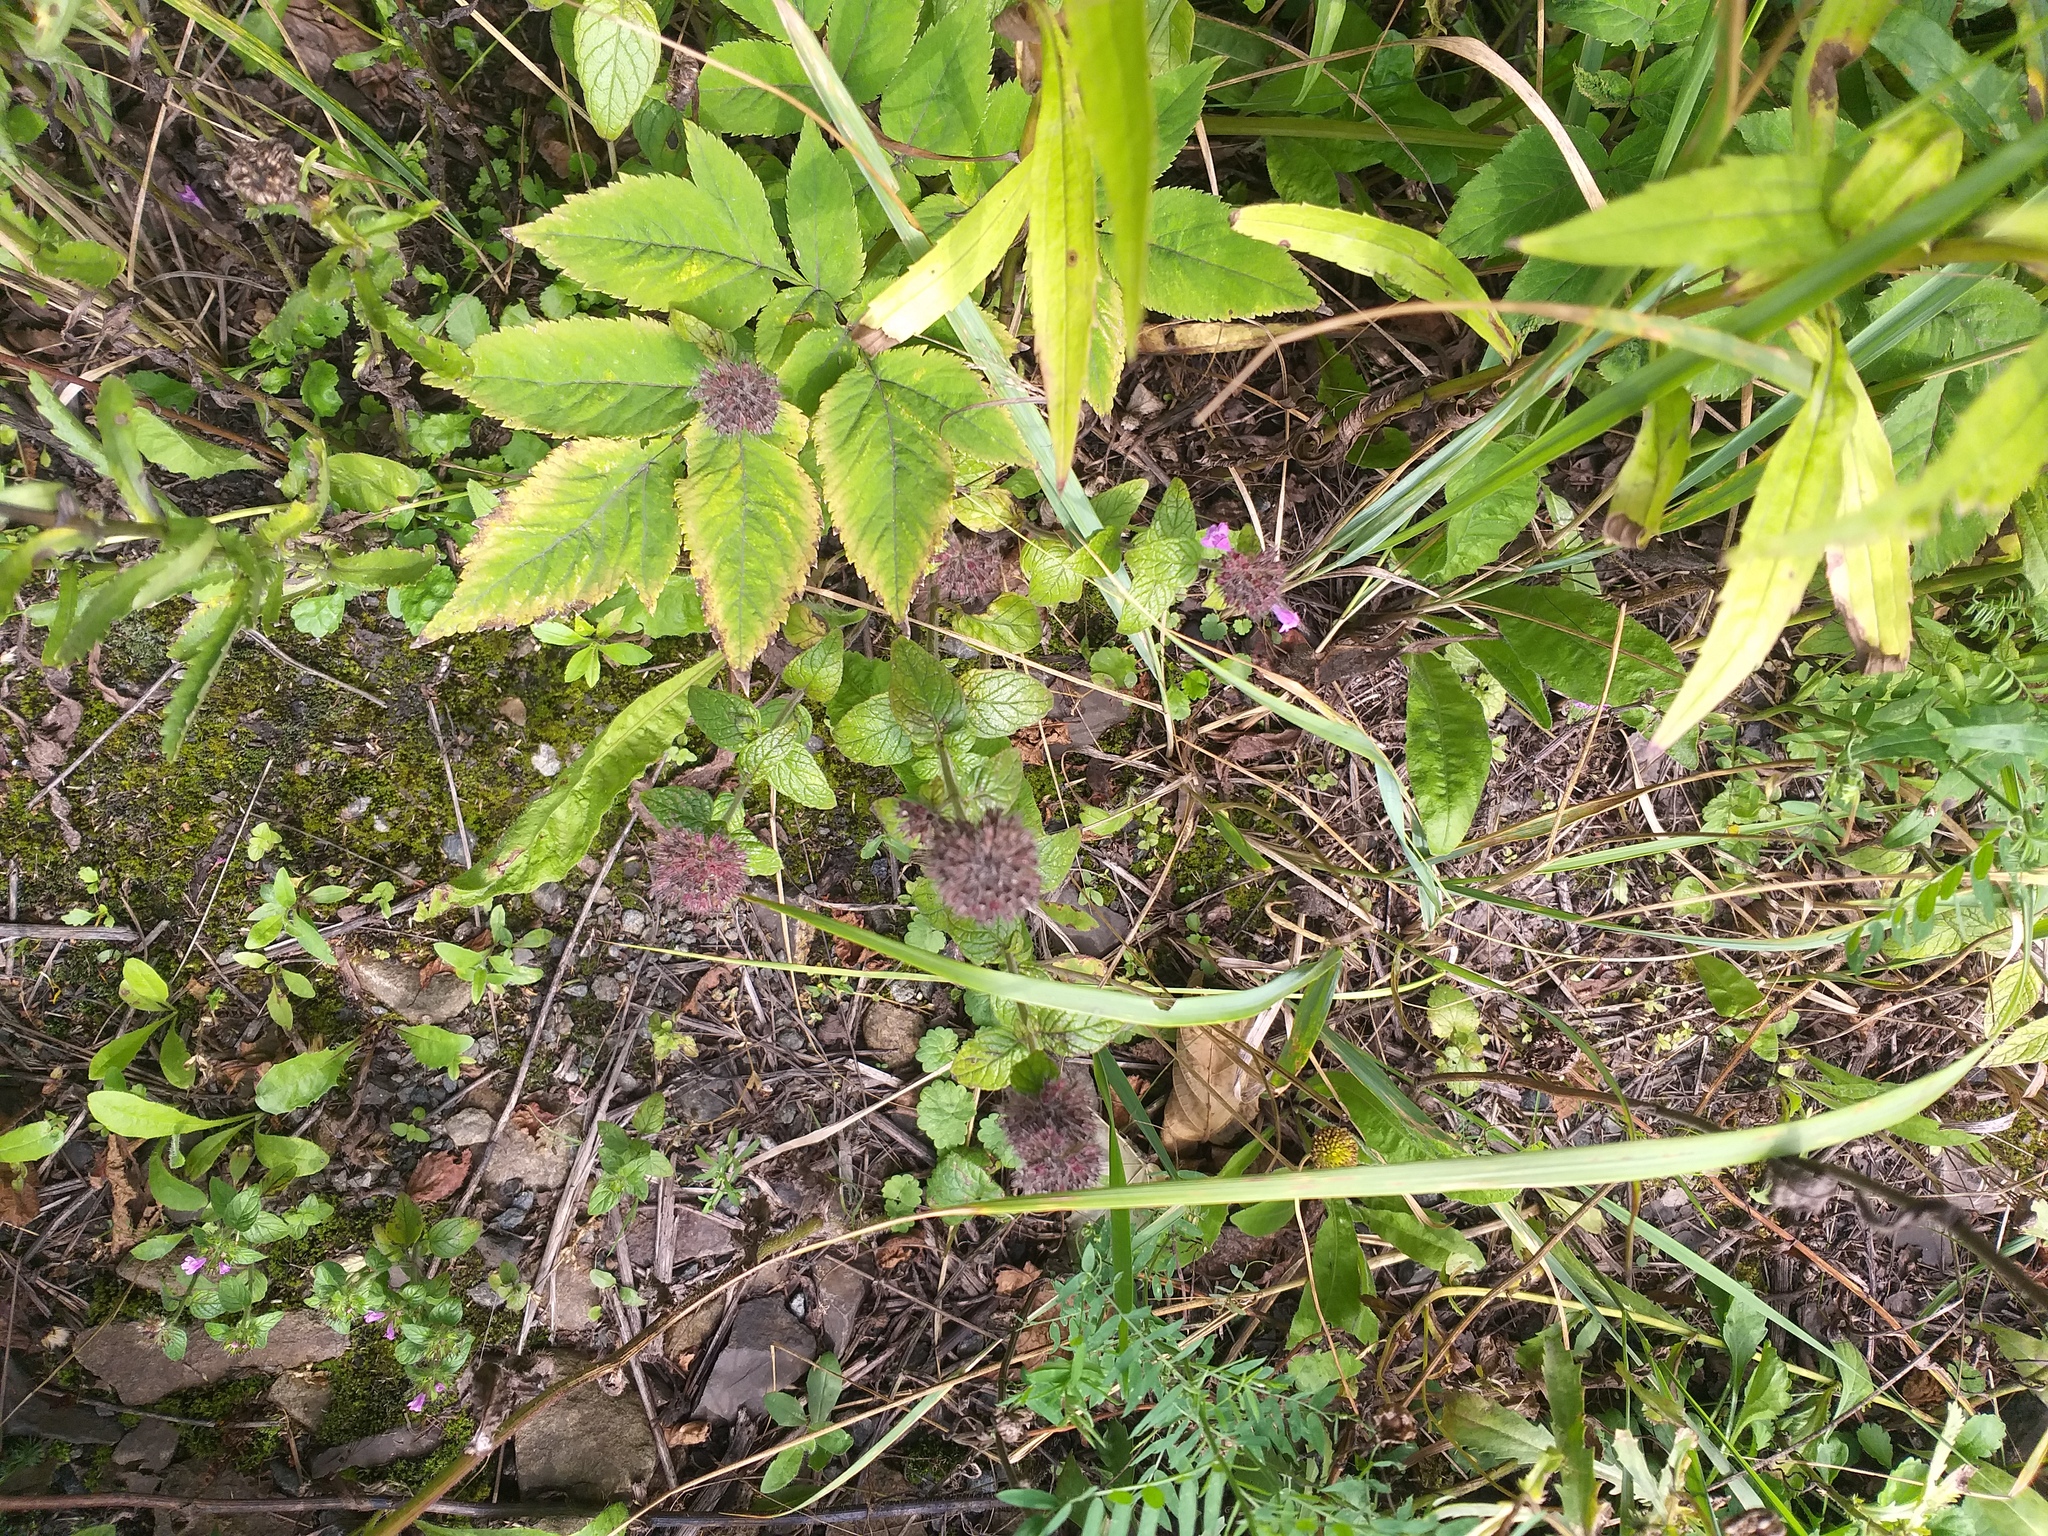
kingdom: Plantae
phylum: Tracheophyta
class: Magnoliopsida
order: Lamiales
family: Lamiaceae
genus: Clinopodium
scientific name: Clinopodium vulgare
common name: Wild basil
